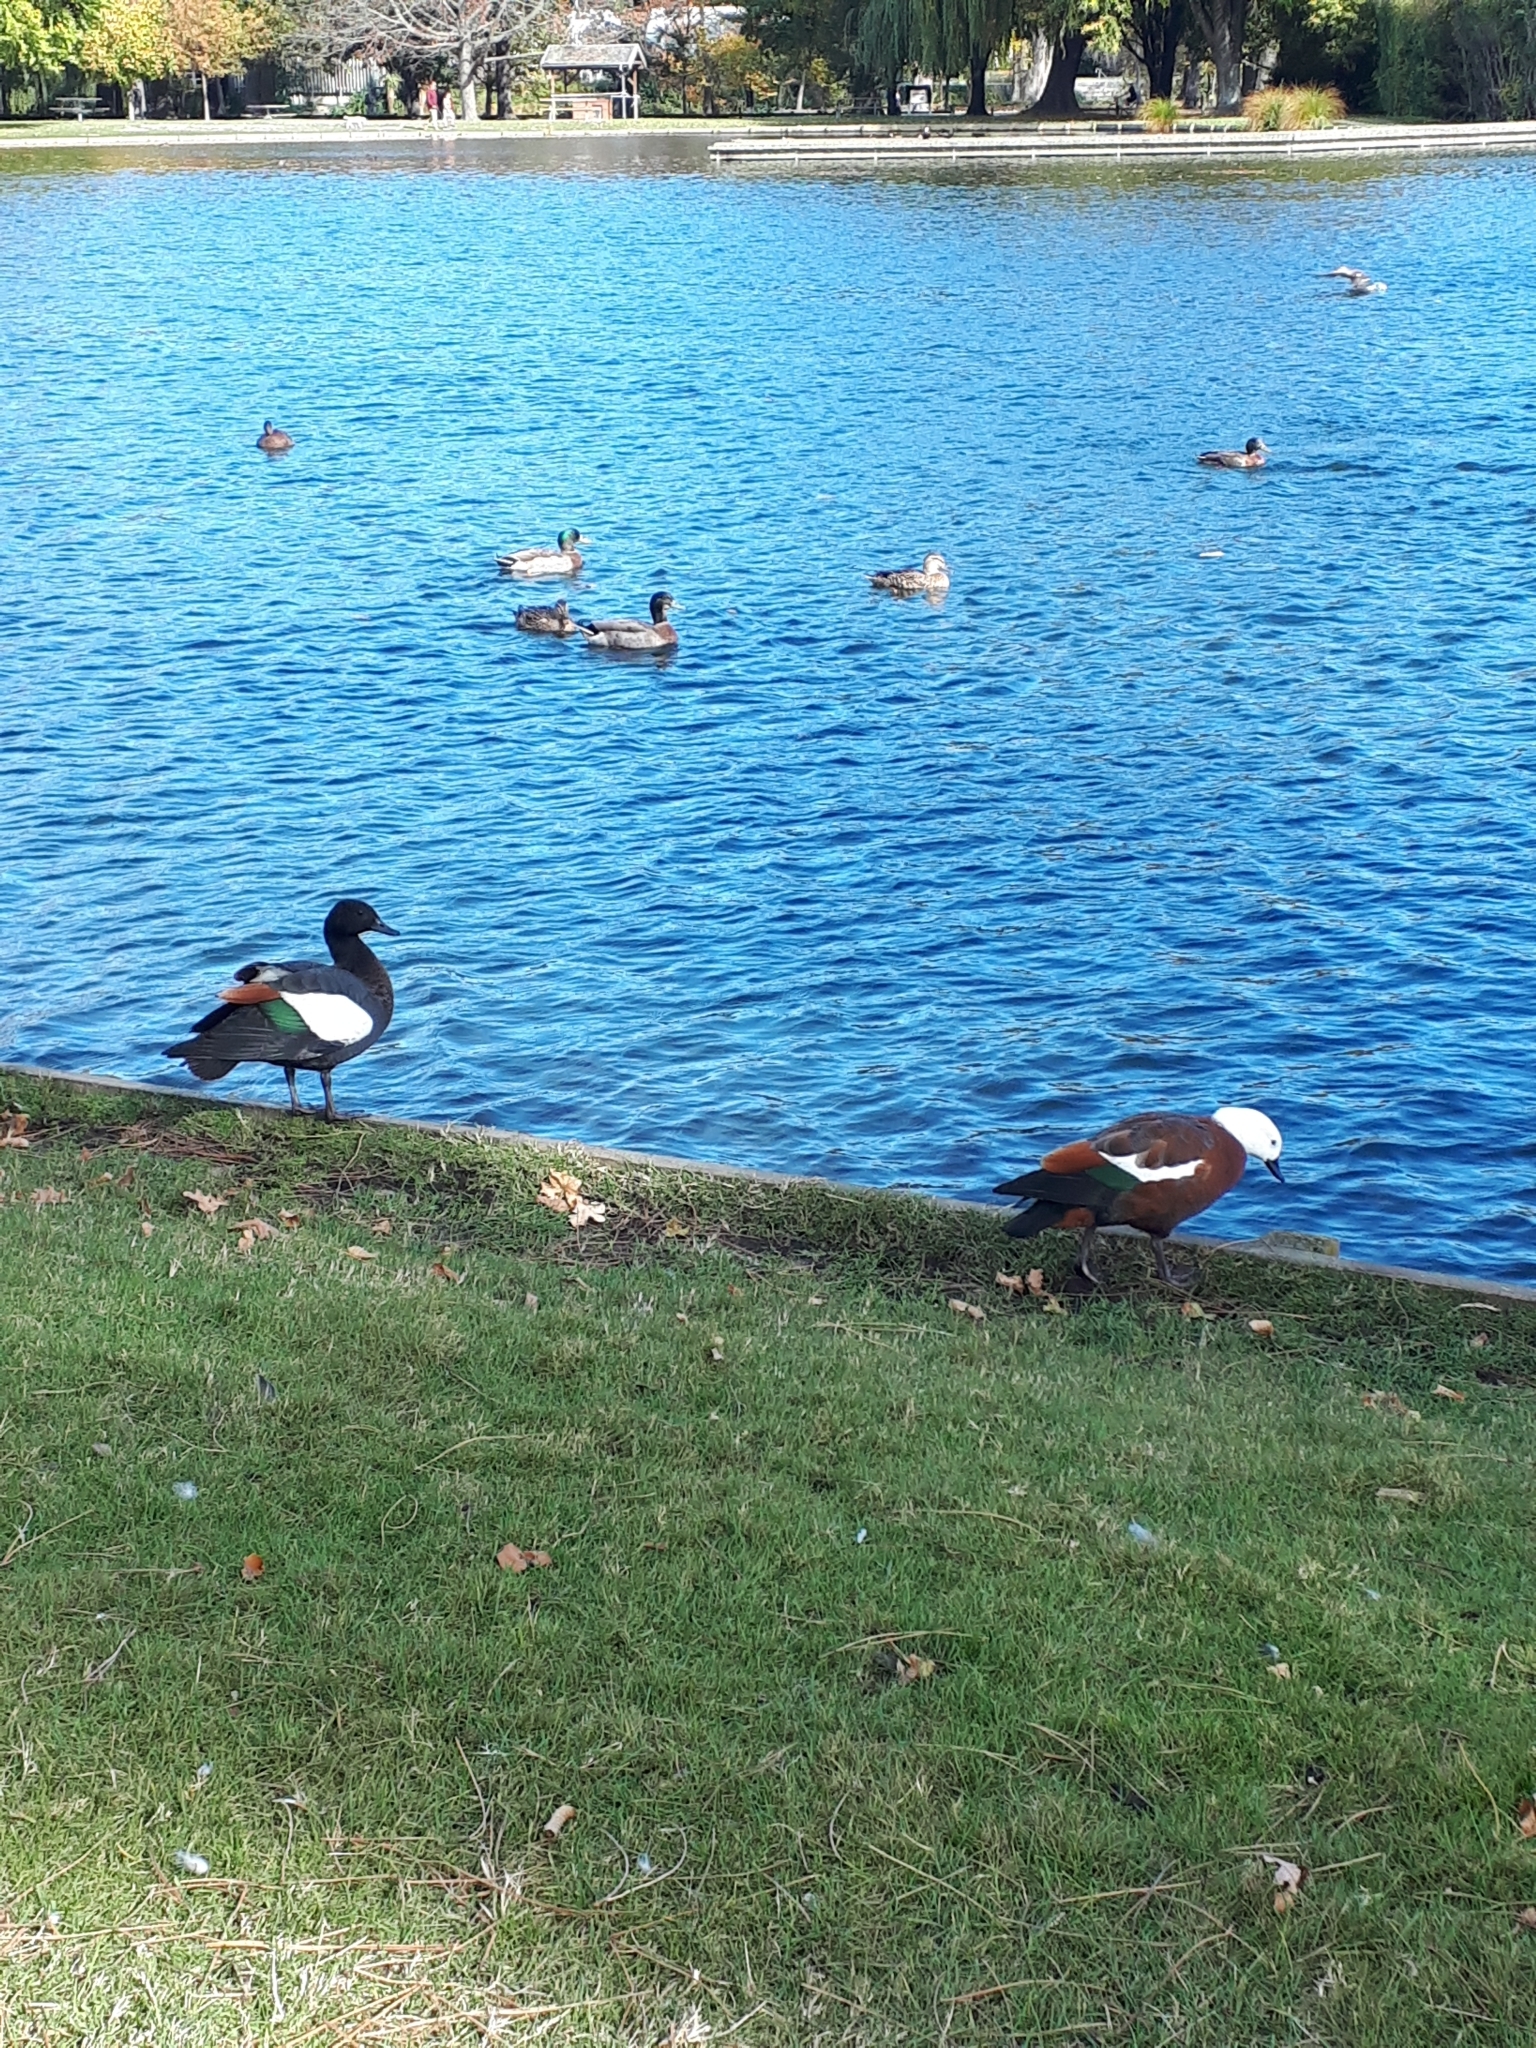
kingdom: Animalia
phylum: Chordata
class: Aves
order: Anseriformes
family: Anatidae
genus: Tadorna
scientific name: Tadorna variegata
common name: Paradise shelduck
